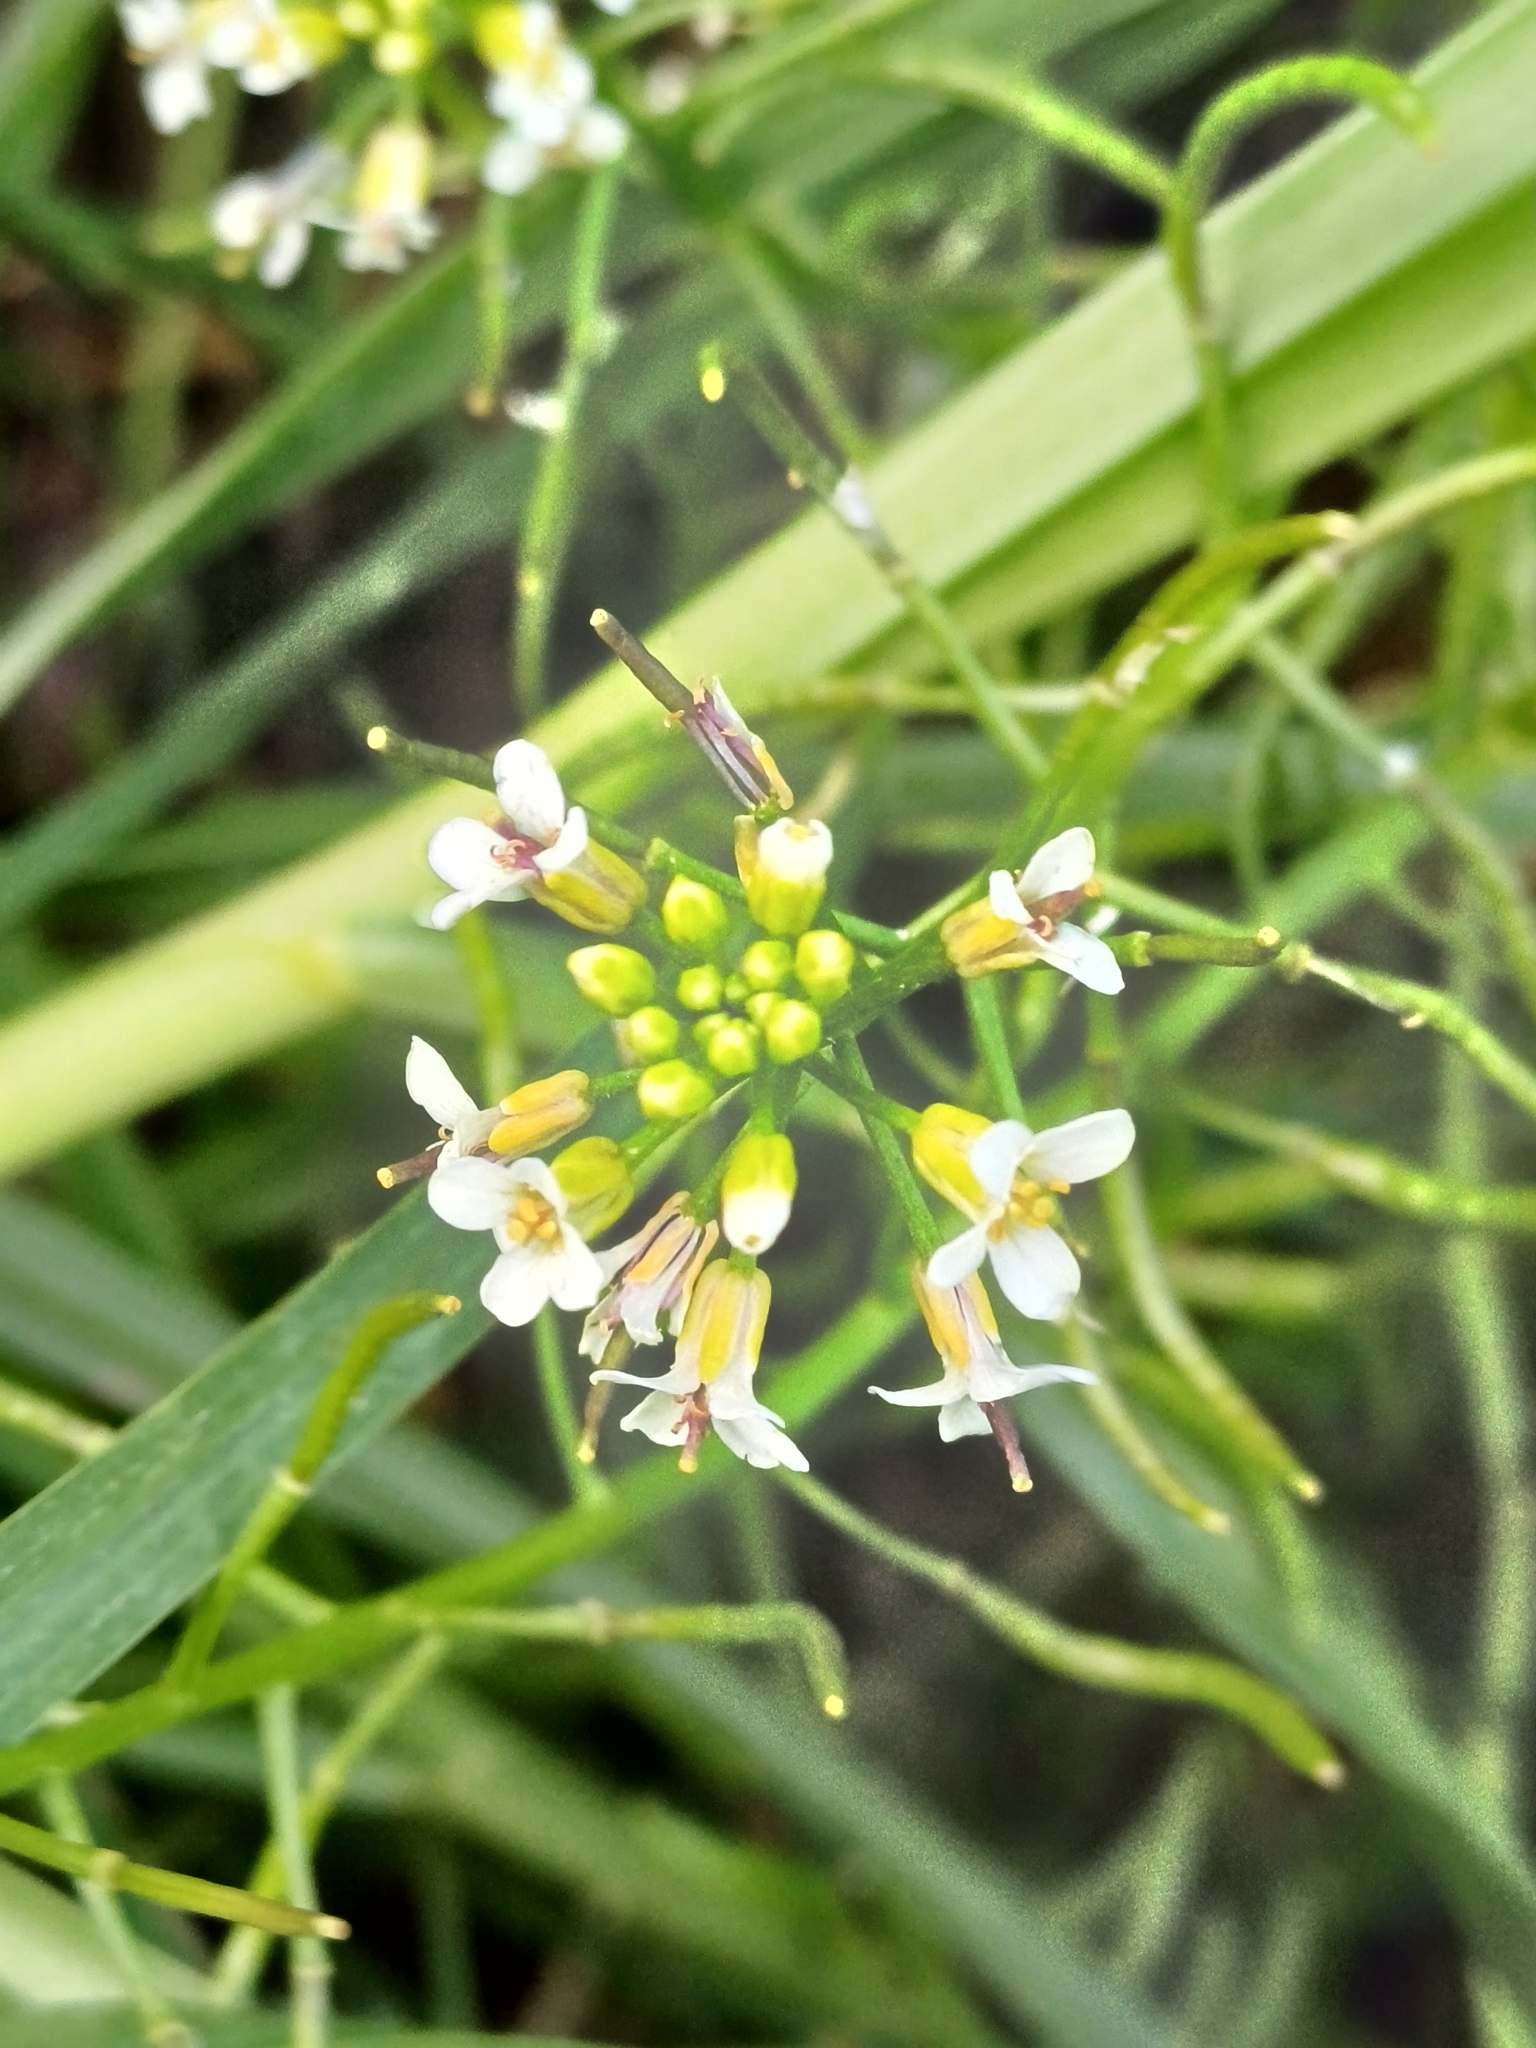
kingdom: Plantae
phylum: Tracheophyta
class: Magnoliopsida
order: Brassicales
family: Brassicaceae
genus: Nasturtium
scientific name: Nasturtium officinale
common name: Watercress
